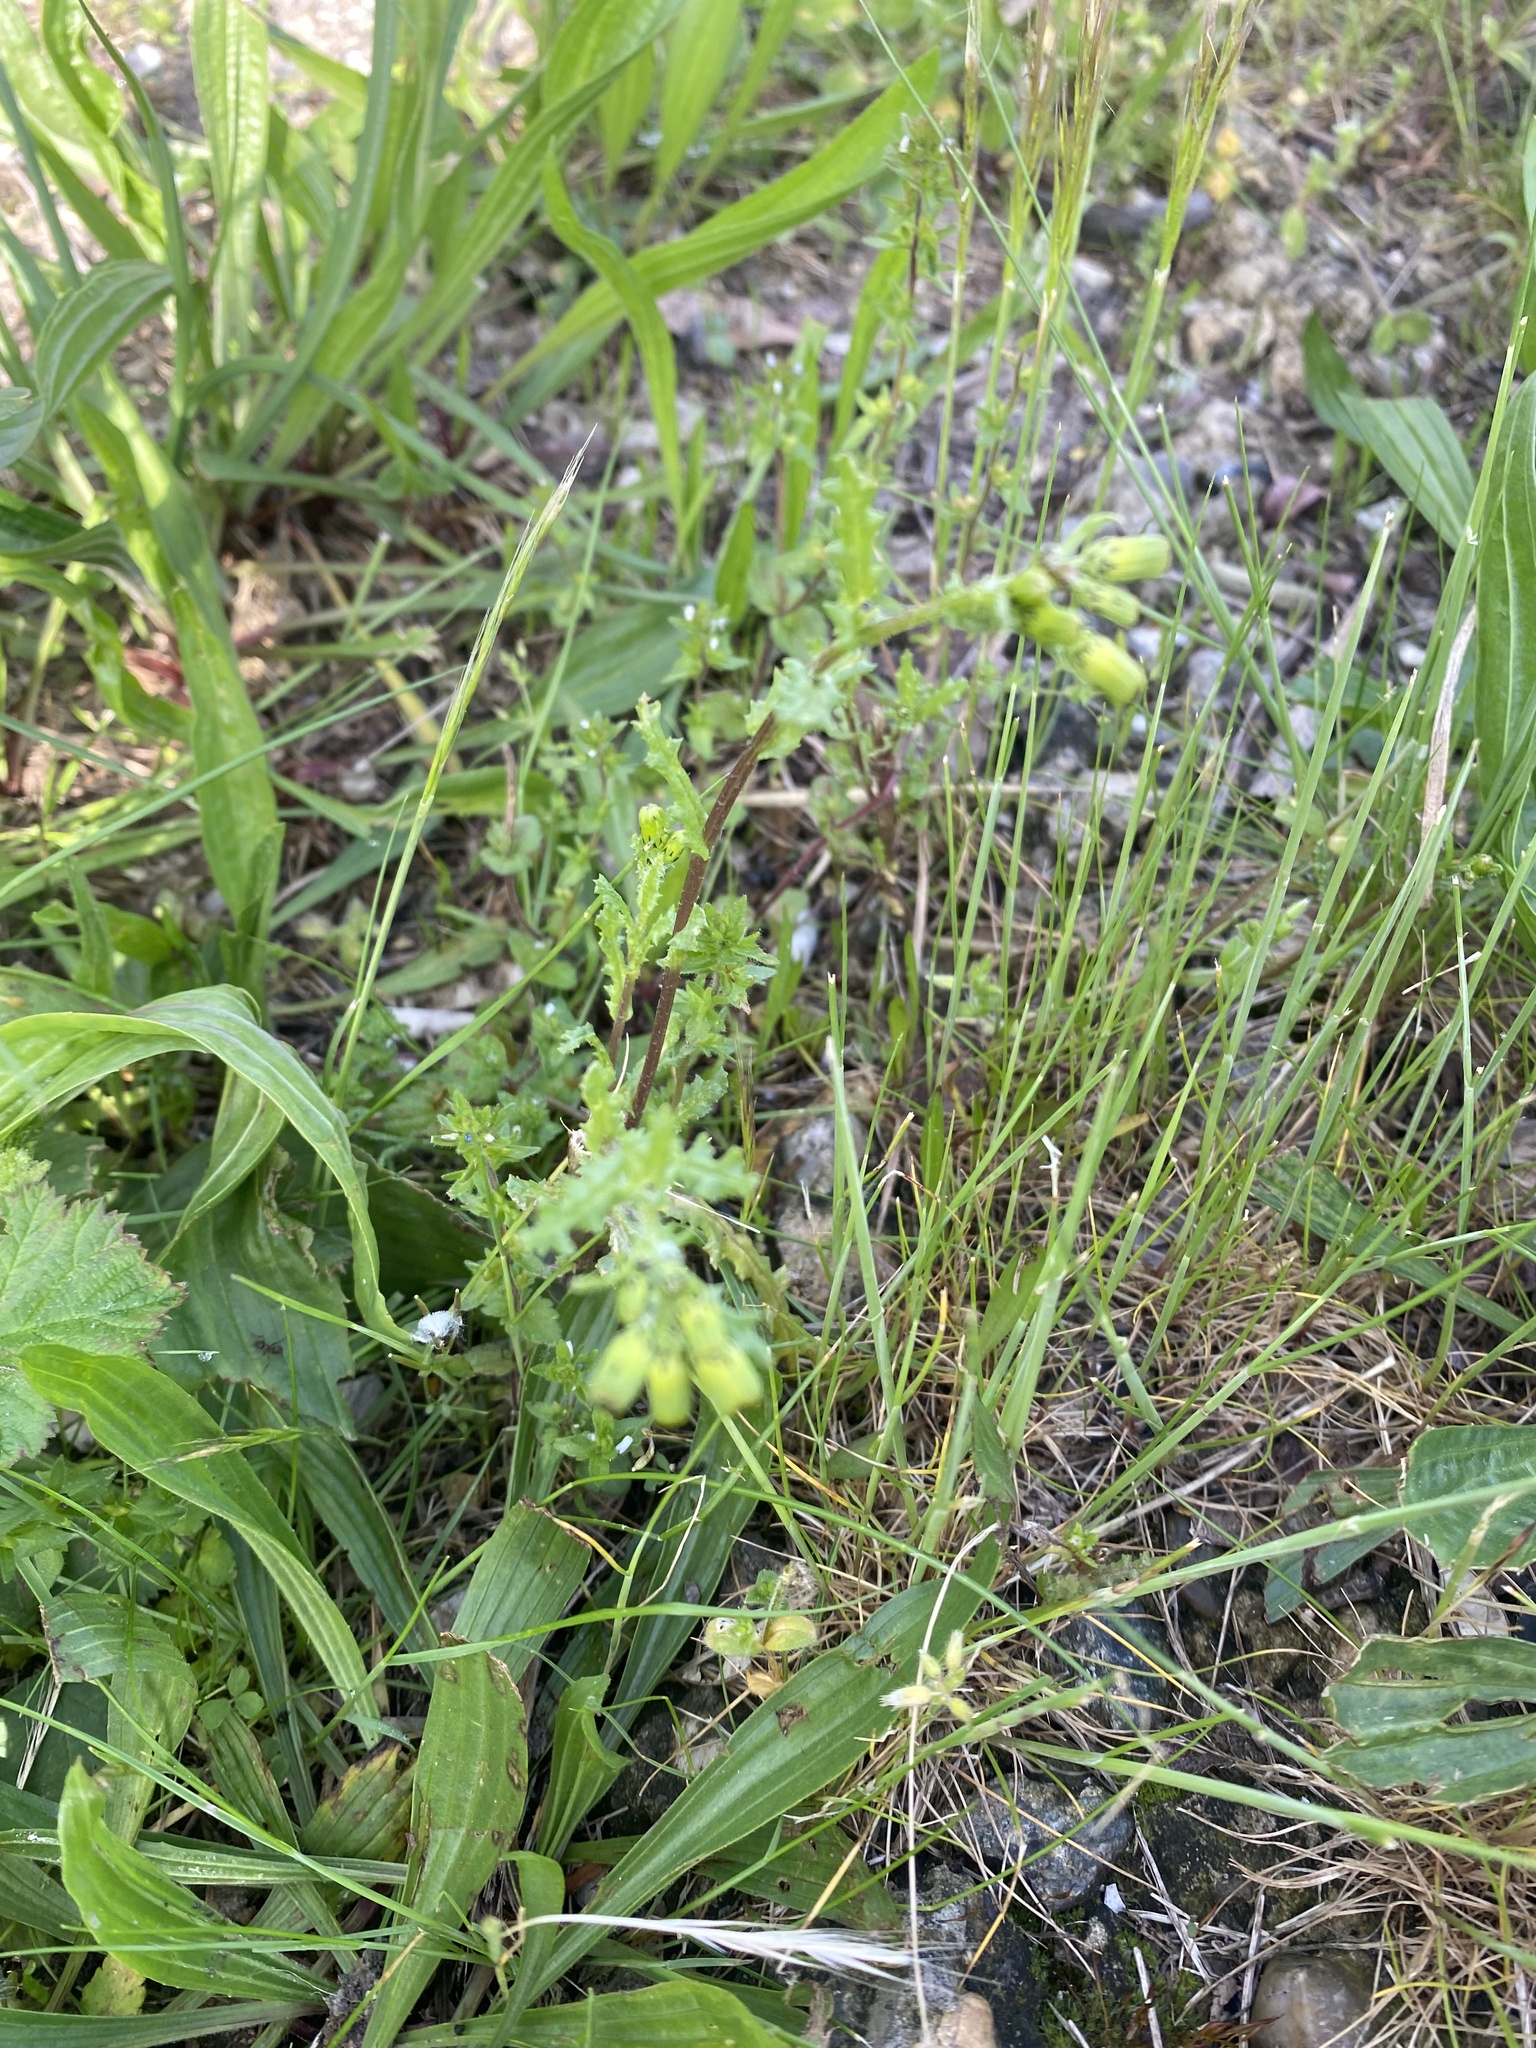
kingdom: Plantae
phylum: Tracheophyta
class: Magnoliopsida
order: Asterales
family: Asteraceae
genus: Senecio
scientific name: Senecio vulgaris
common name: Old-man-in-the-spring
